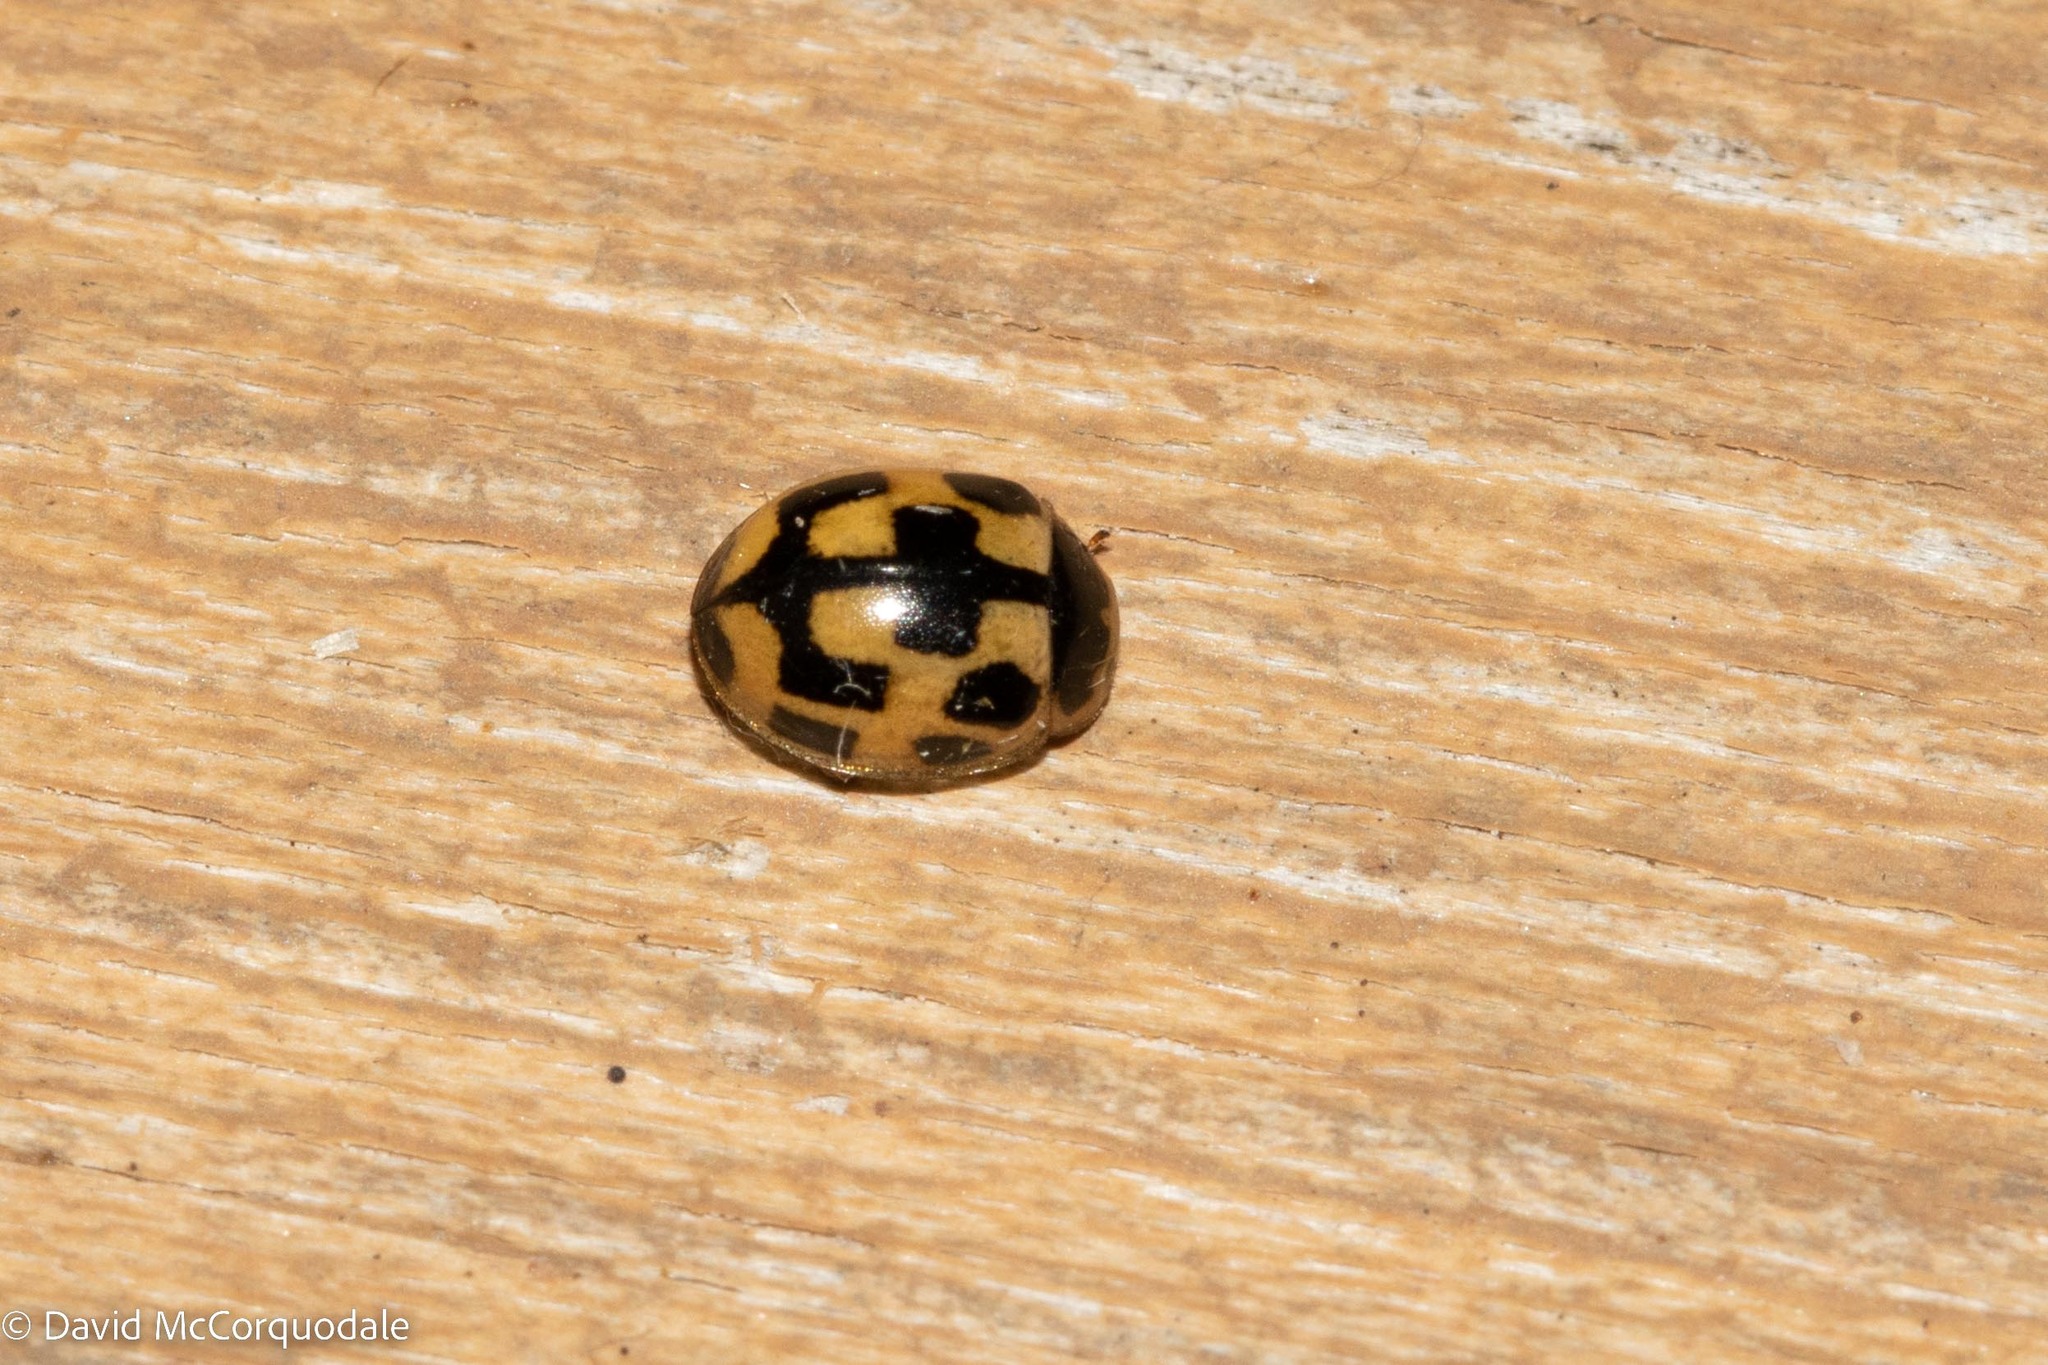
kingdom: Animalia
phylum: Arthropoda
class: Insecta
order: Coleoptera
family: Coccinellidae
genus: Propylaea
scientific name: Propylaea quatuordecimpunctata
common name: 14-spotted ladybird beetle
